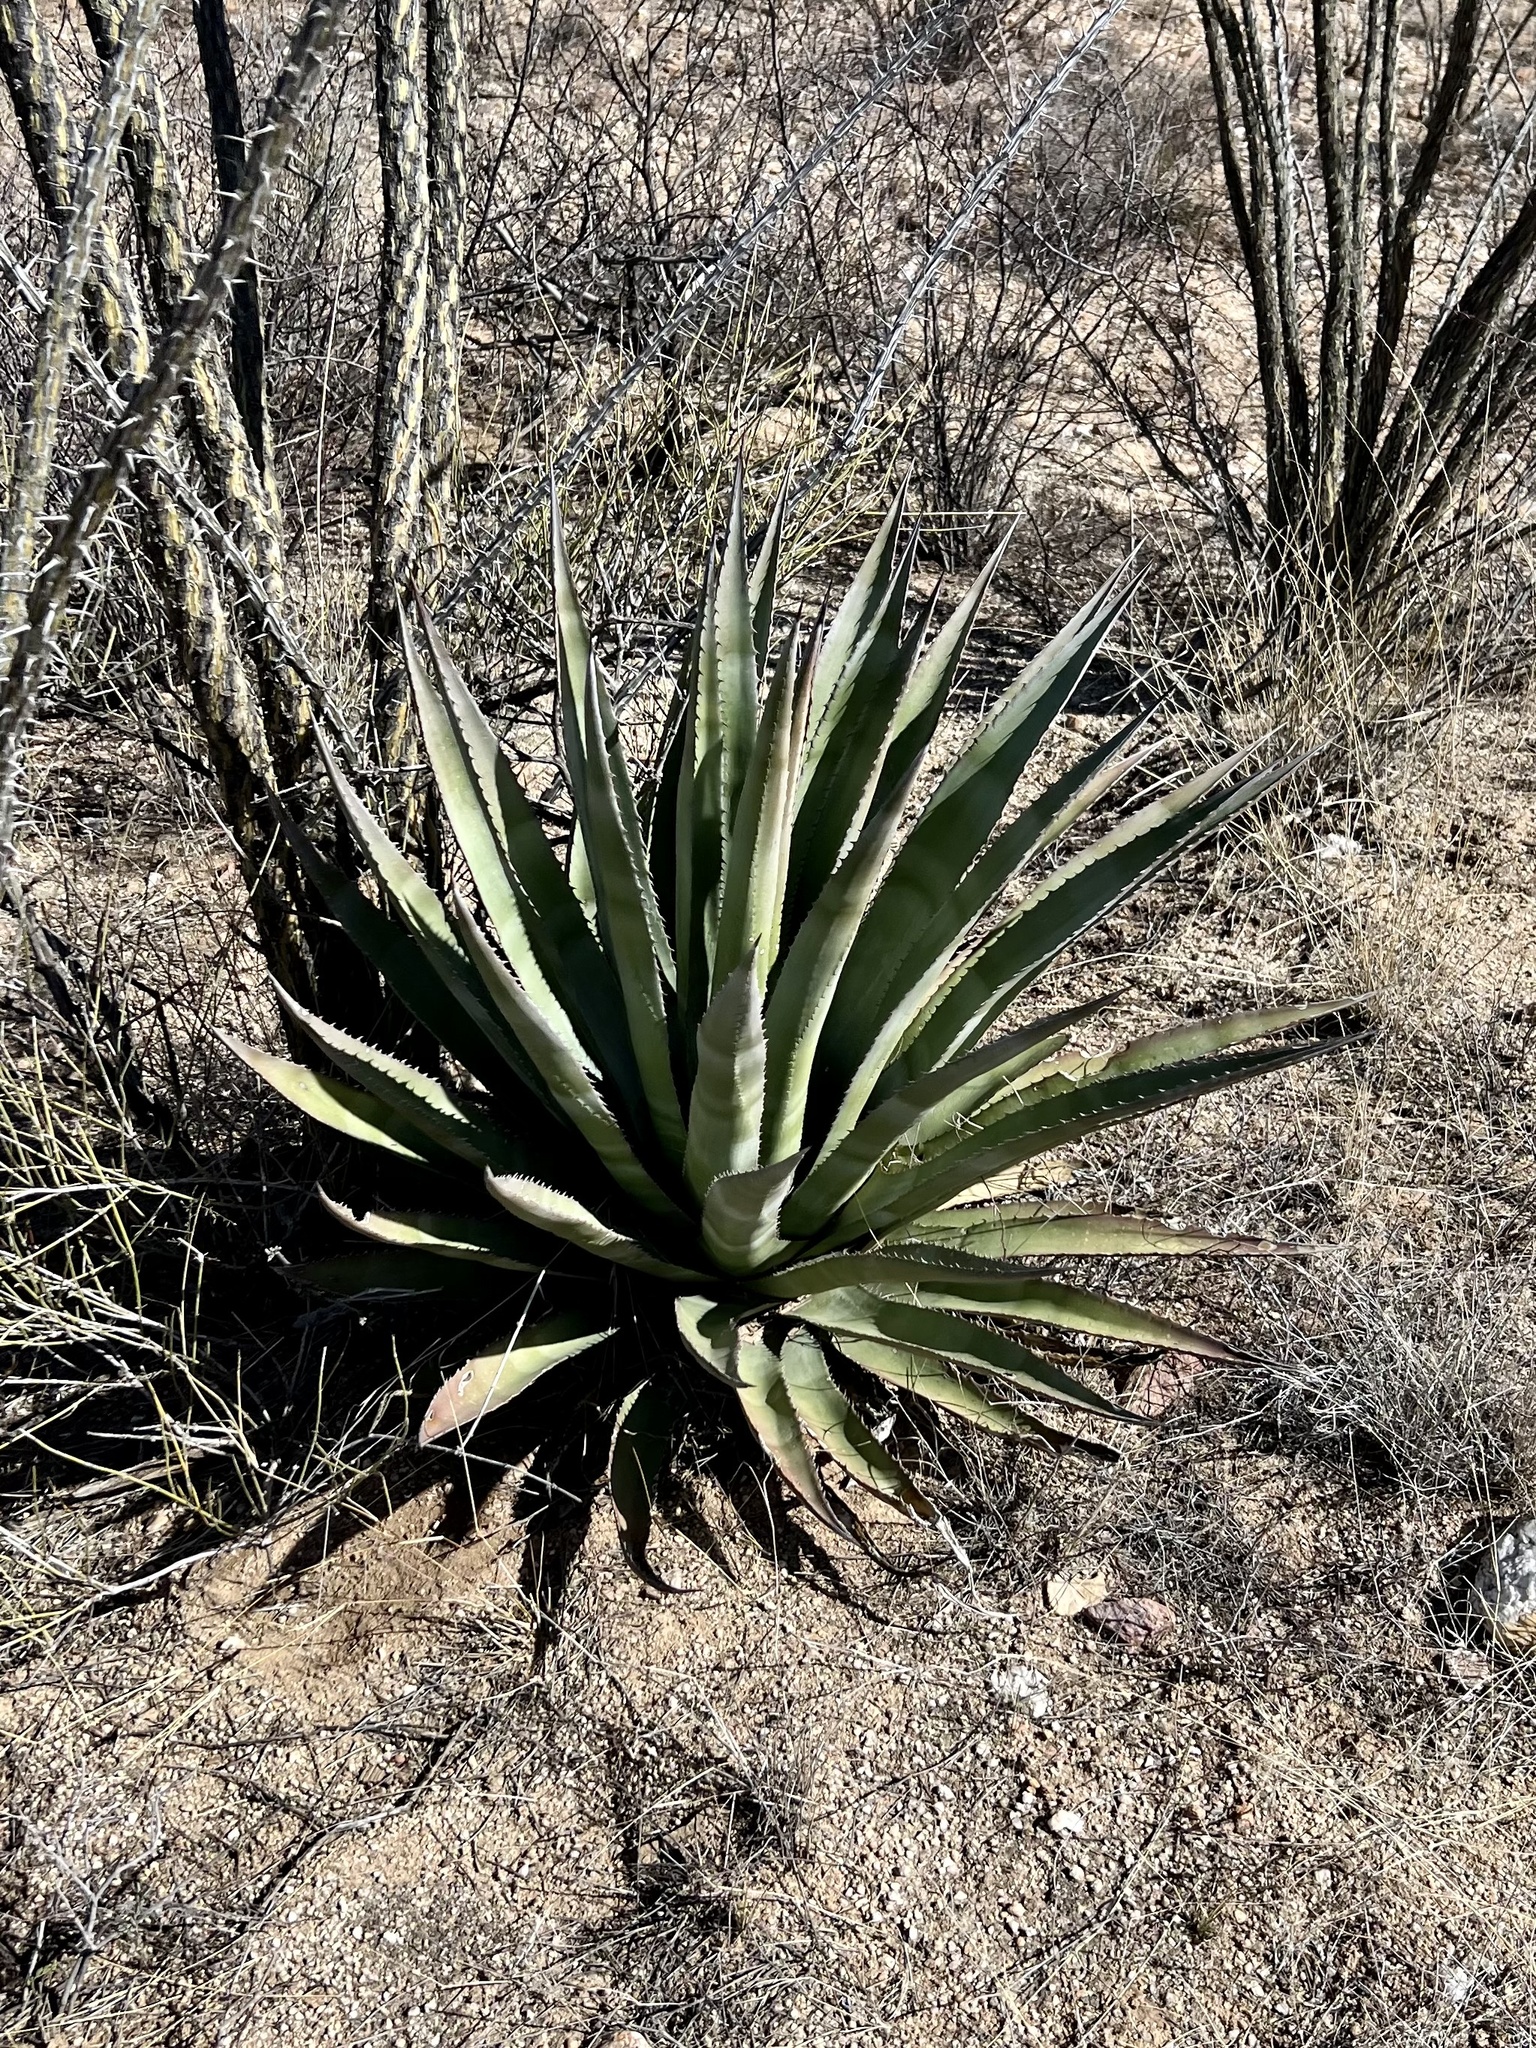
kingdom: Plantae
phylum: Tracheophyta
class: Liliopsida
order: Asparagales
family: Asparagaceae
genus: Agave
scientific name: Agave palmeri
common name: Palmer agave
